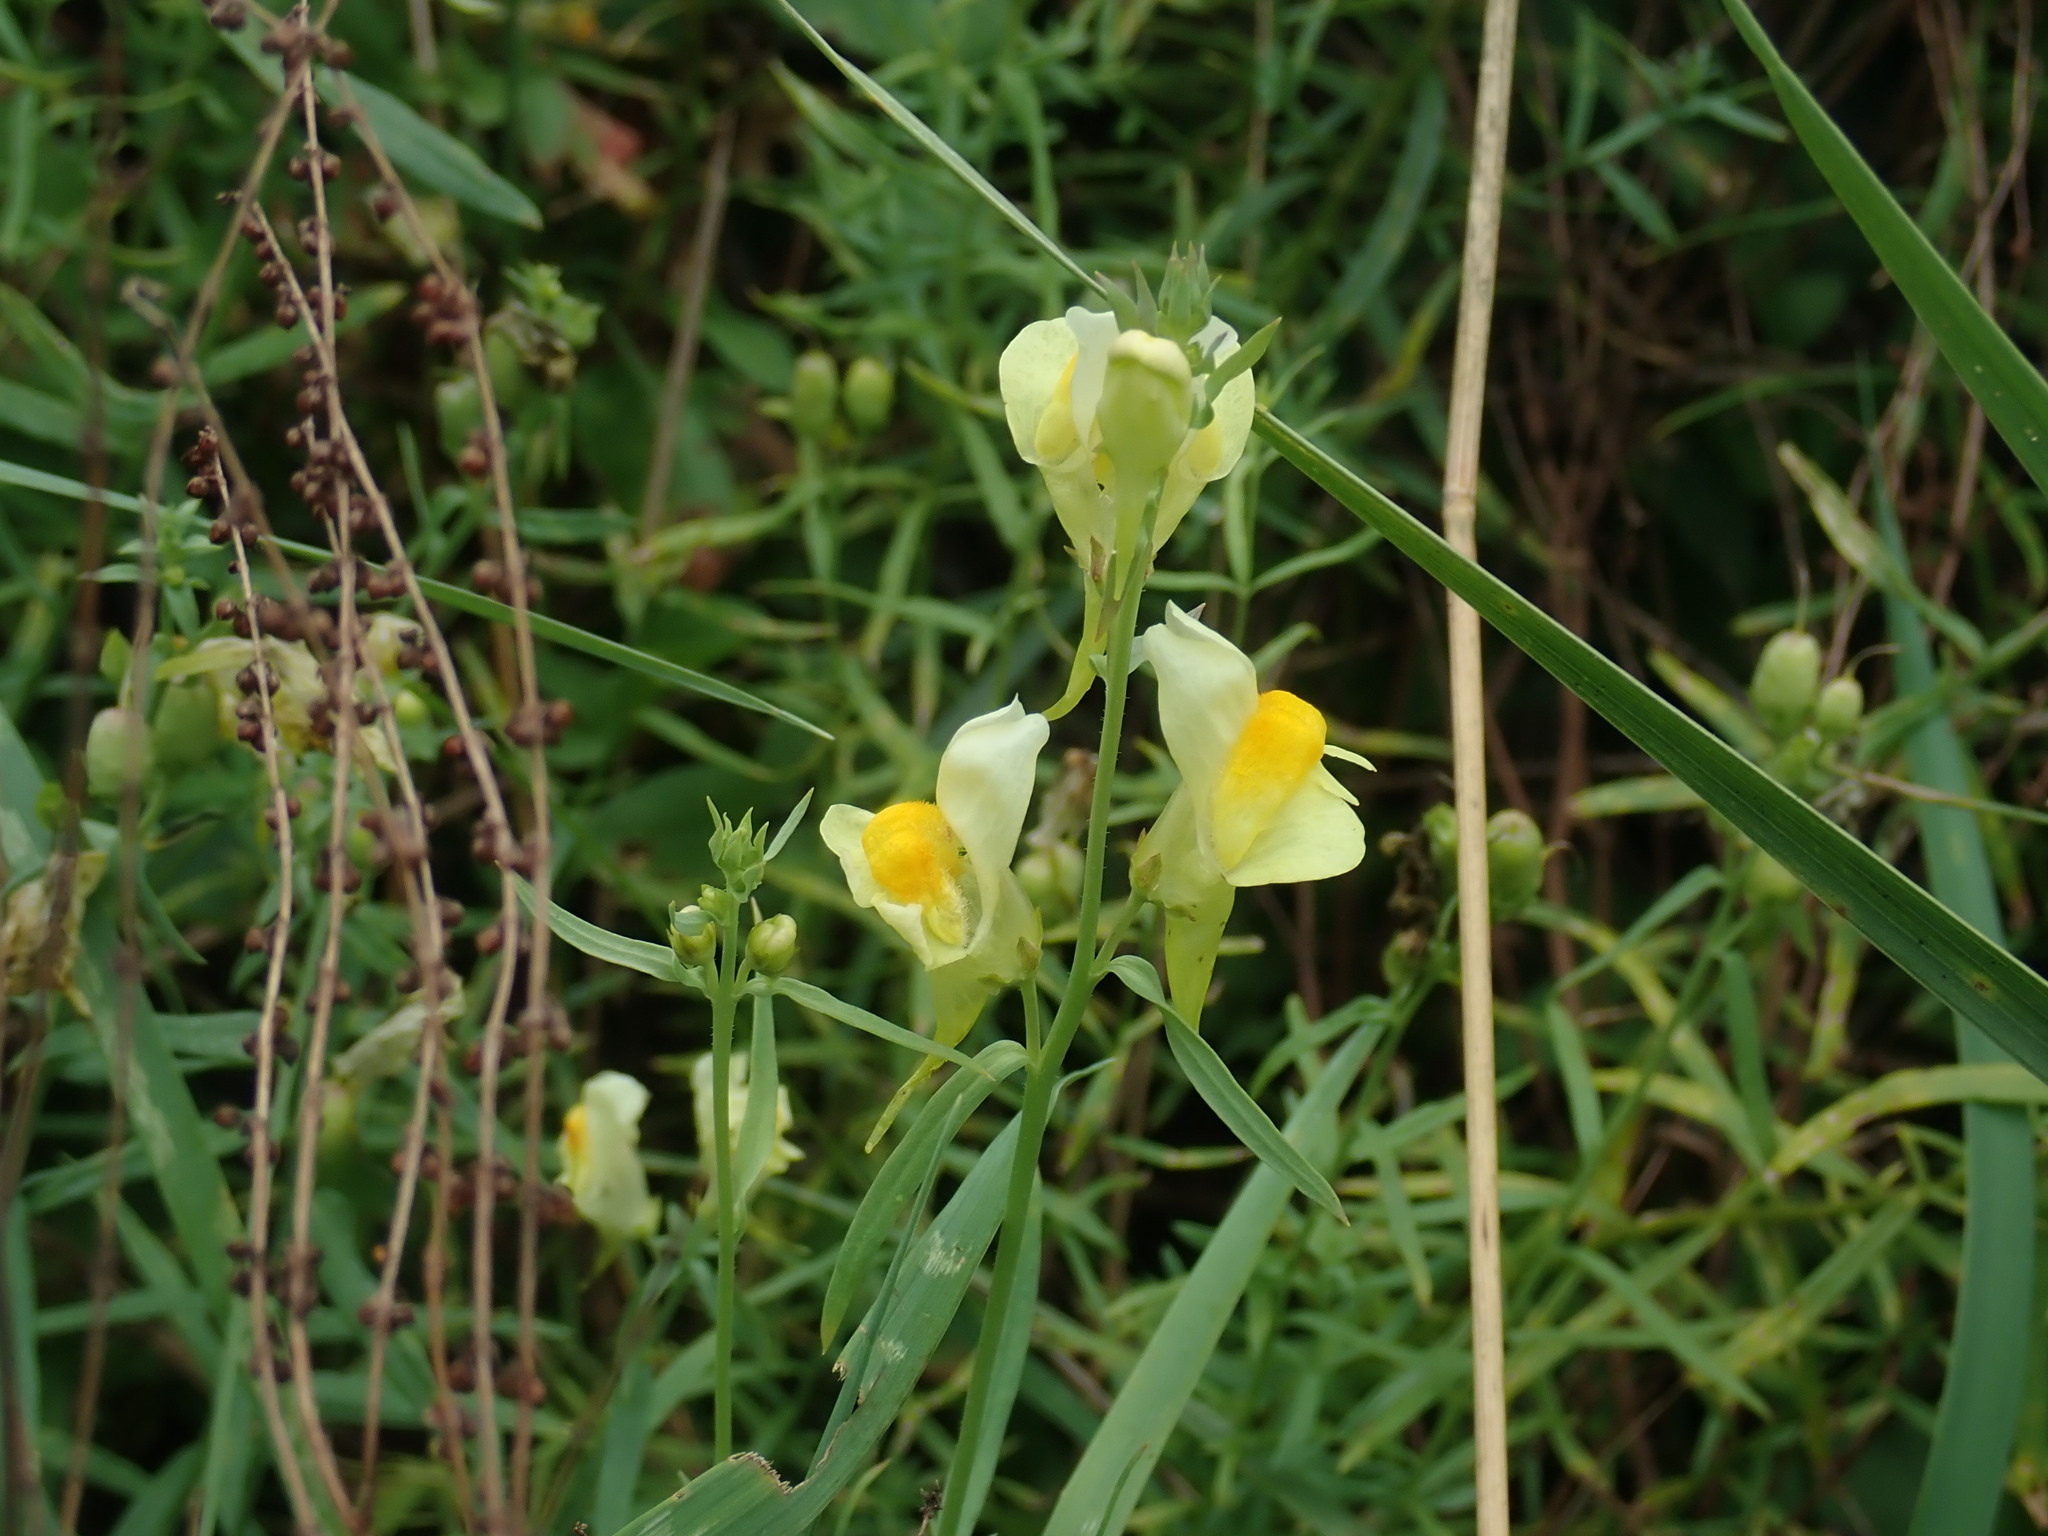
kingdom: Plantae
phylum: Tracheophyta
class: Magnoliopsida
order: Lamiales
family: Plantaginaceae
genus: Linaria
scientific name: Linaria vulgaris
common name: Butter and eggs
